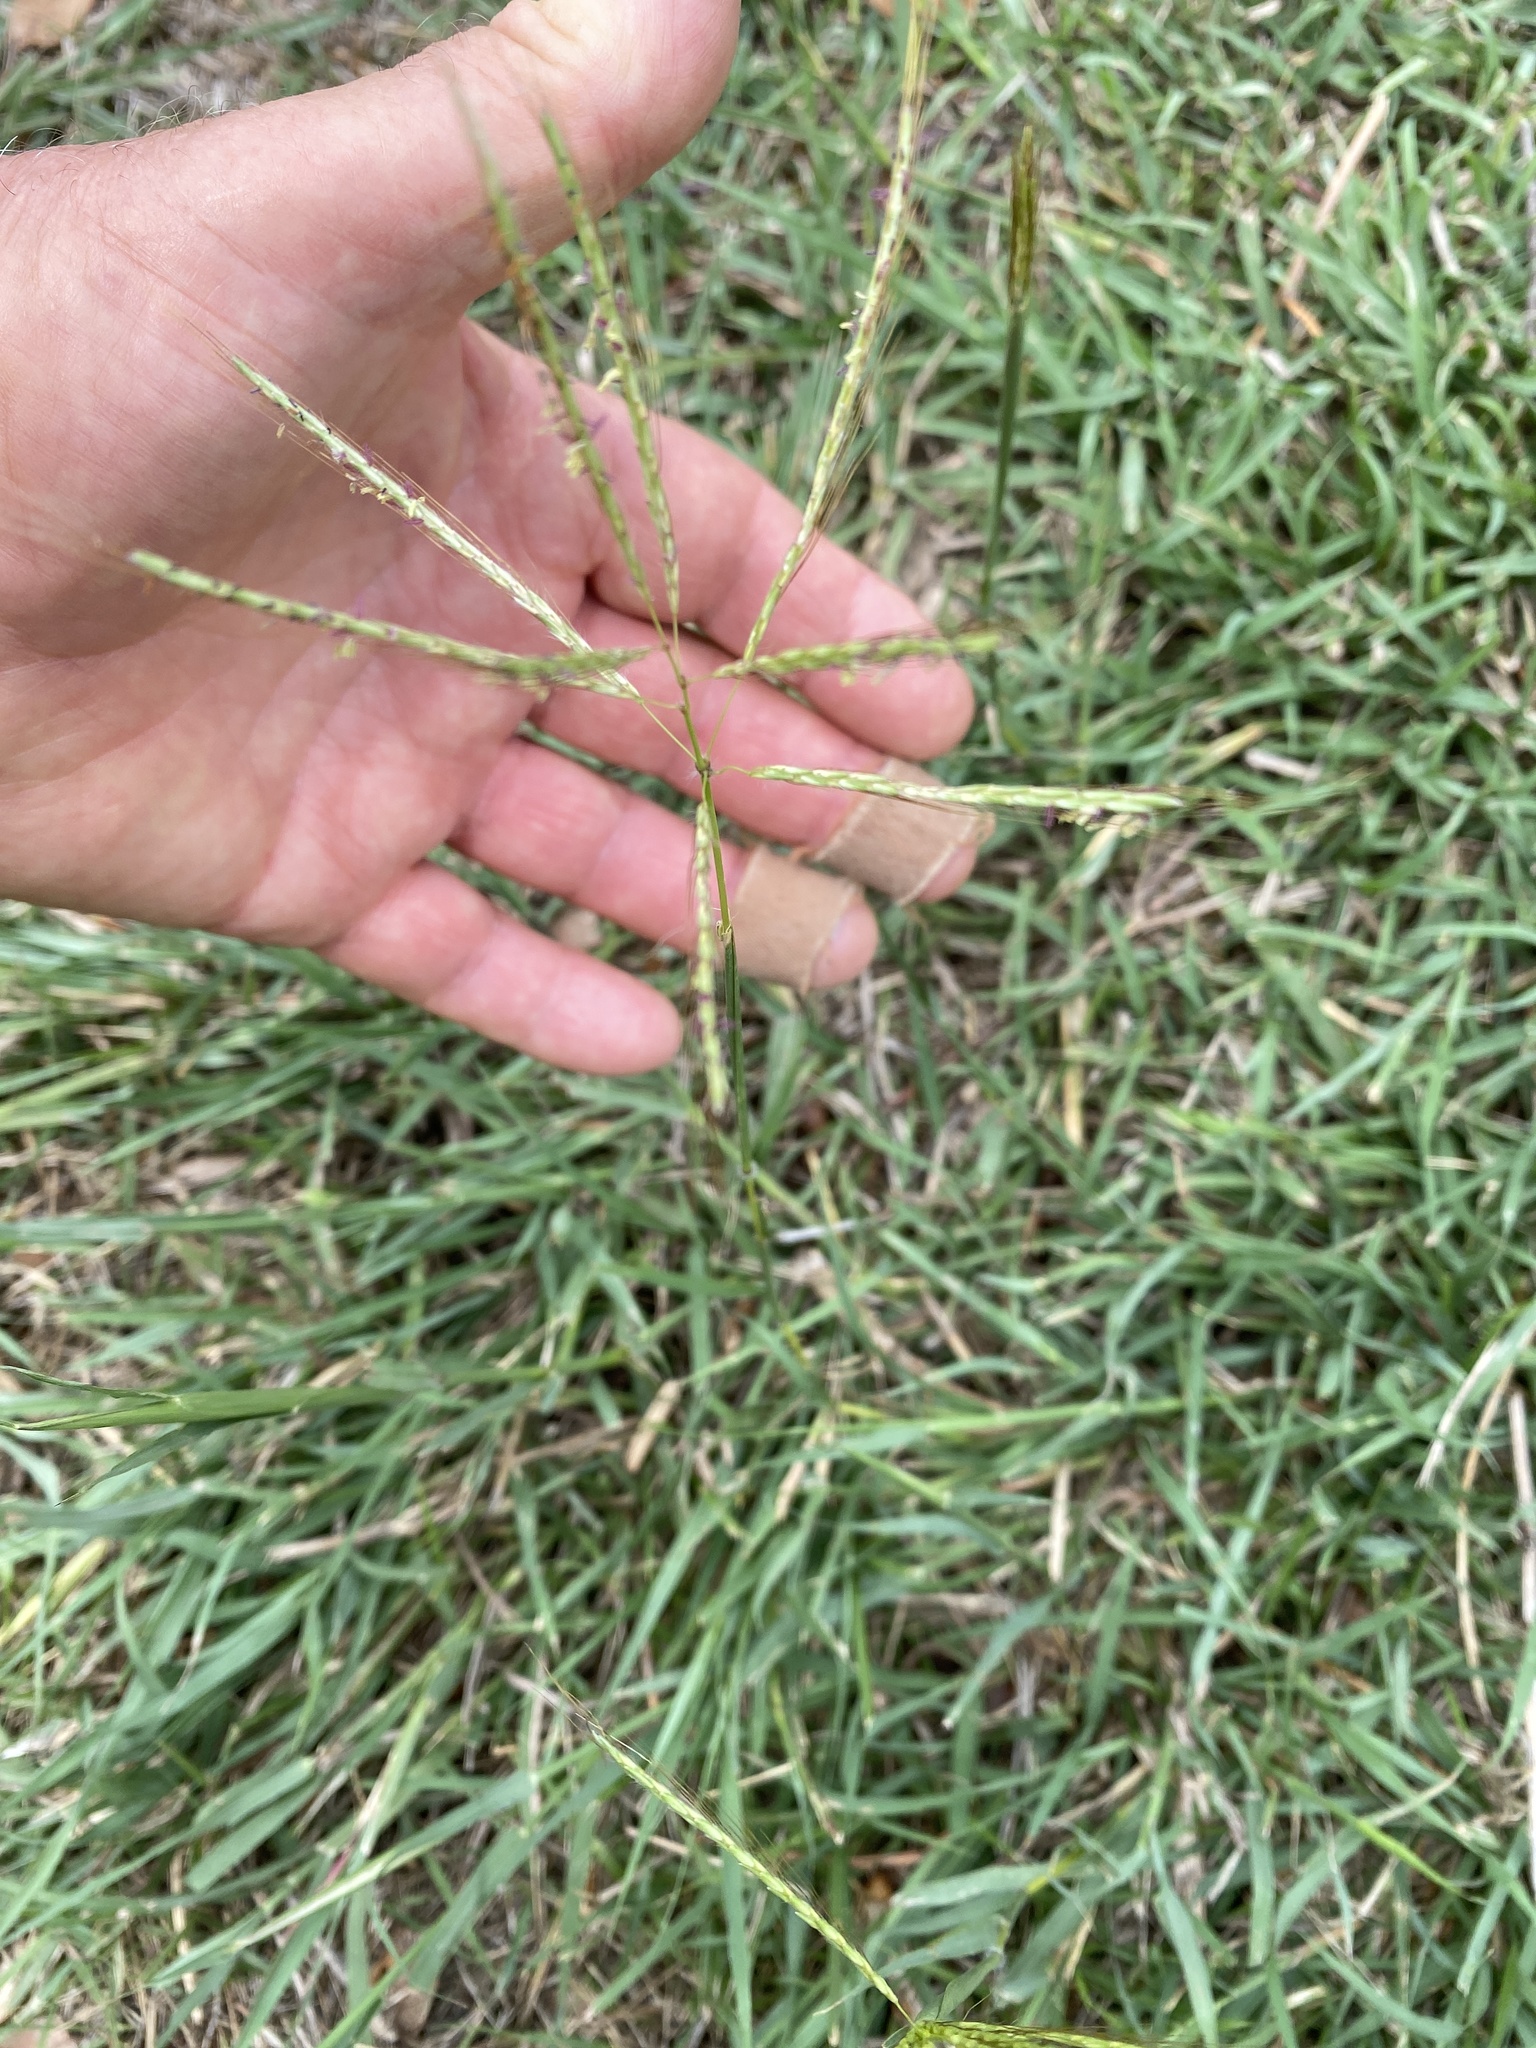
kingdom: Plantae
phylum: Tracheophyta
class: Liliopsida
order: Poales
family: Poaceae
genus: Bothriochloa
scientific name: Bothriochloa ischaemum
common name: Yellow bluestem
